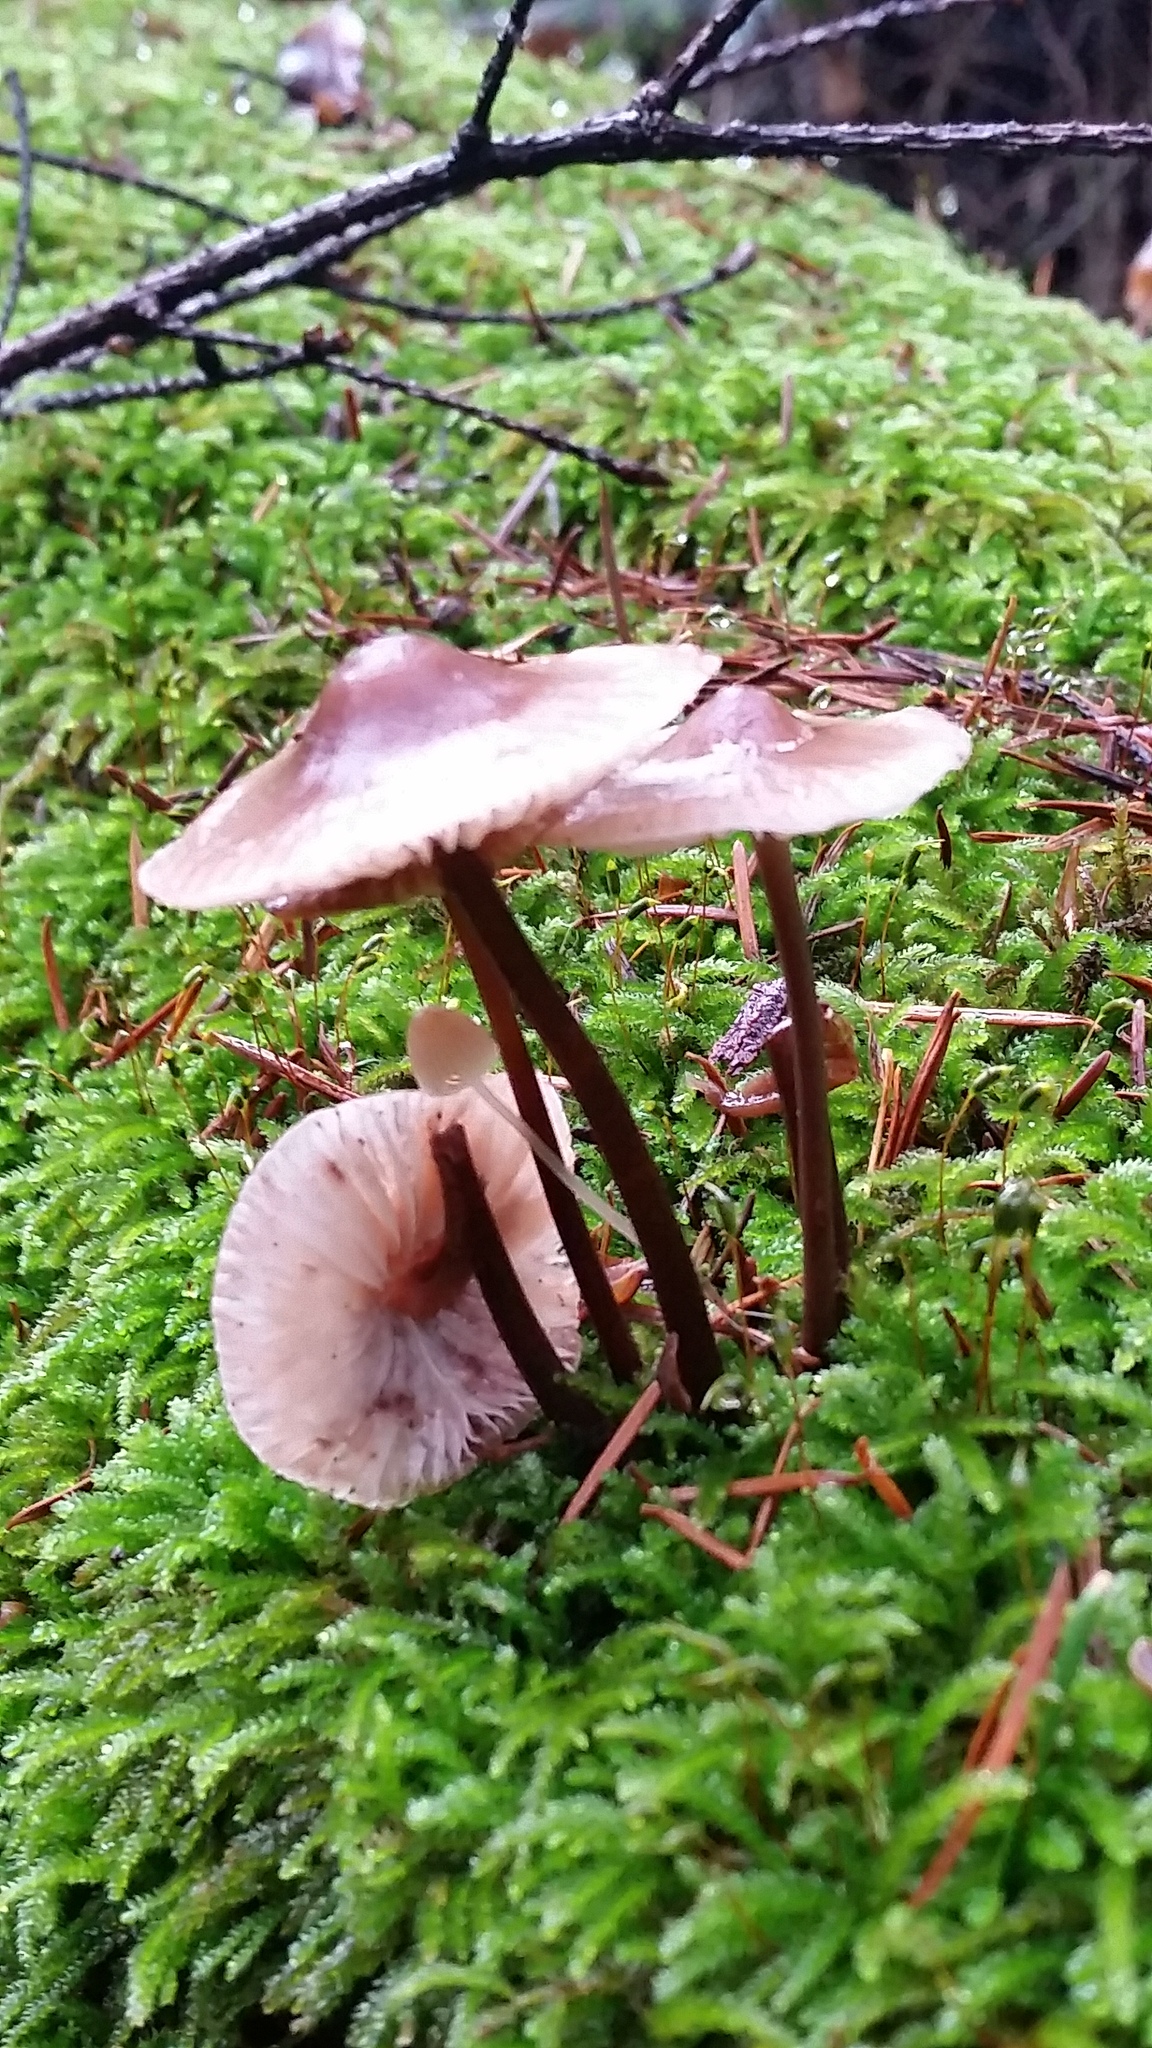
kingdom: Fungi
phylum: Basidiomycota
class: Agaricomycetes
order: Agaricales
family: Mycenaceae
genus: Mycena
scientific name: Mycena maculata
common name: Stained bonnet
